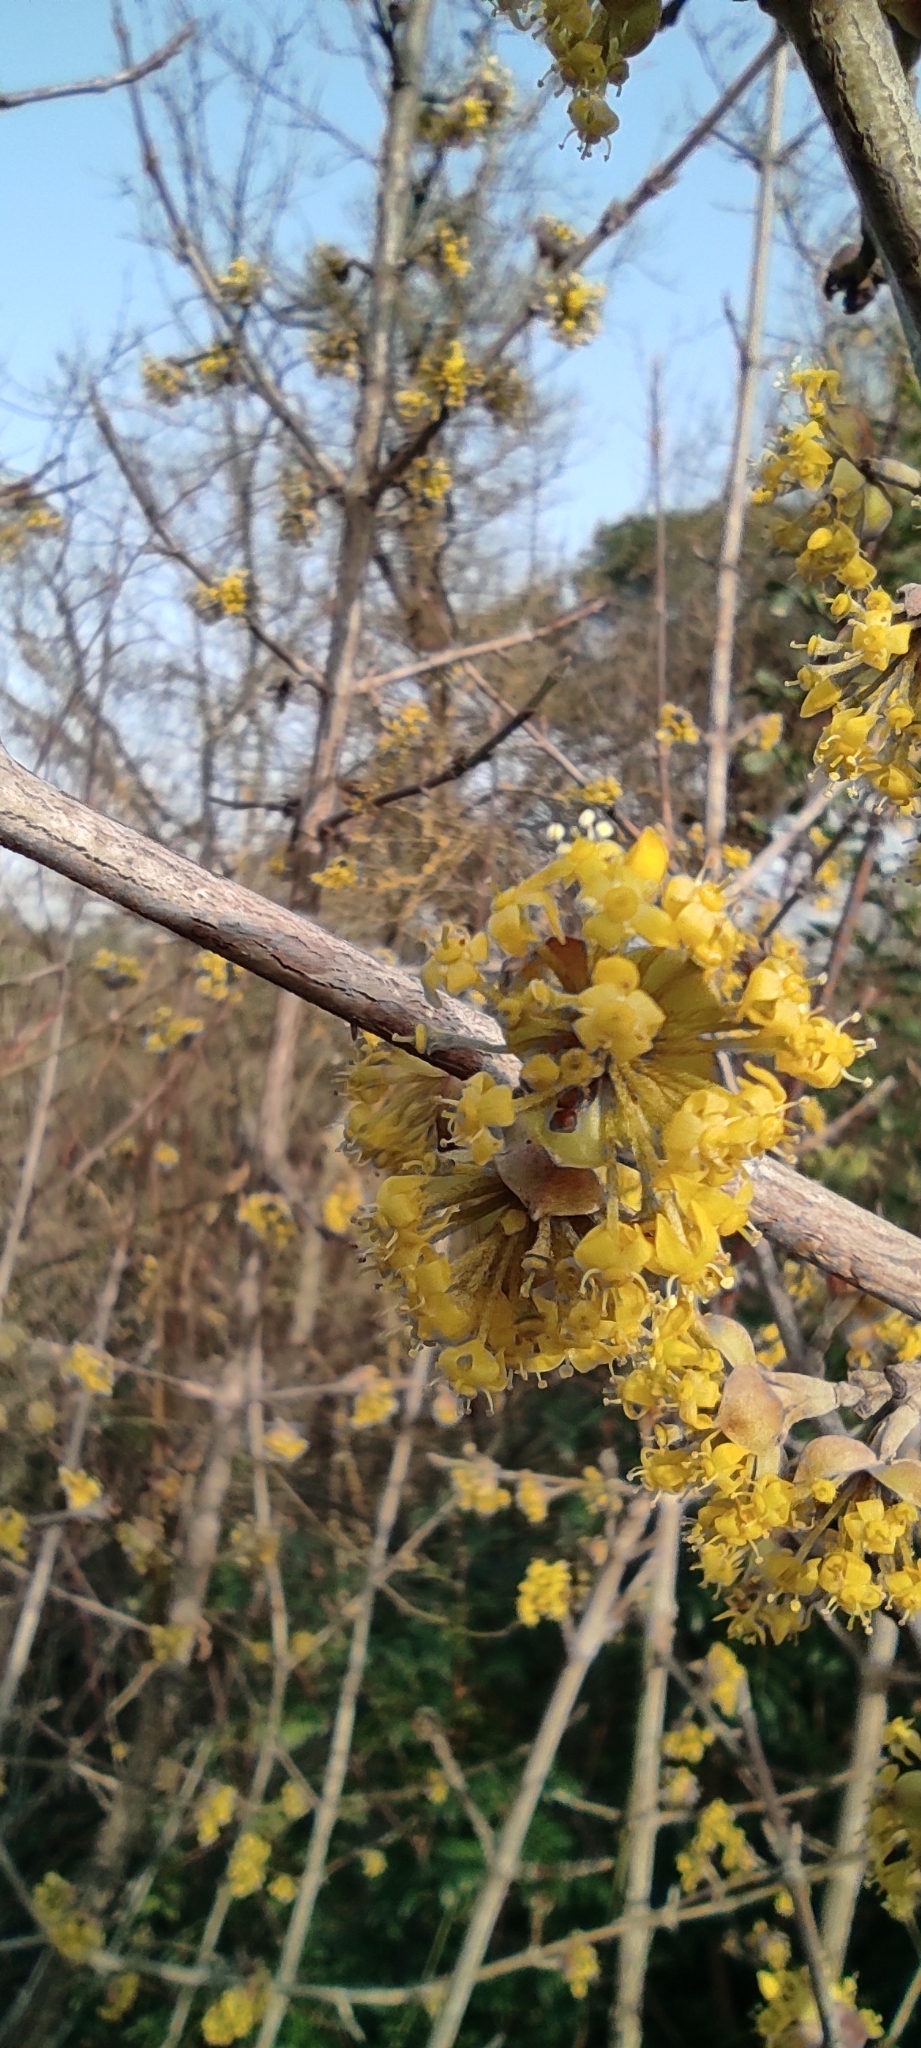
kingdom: Plantae
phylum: Tracheophyta
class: Magnoliopsida
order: Cornales
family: Cornaceae
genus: Cornus
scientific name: Cornus mas
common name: Cornelian-cherry
